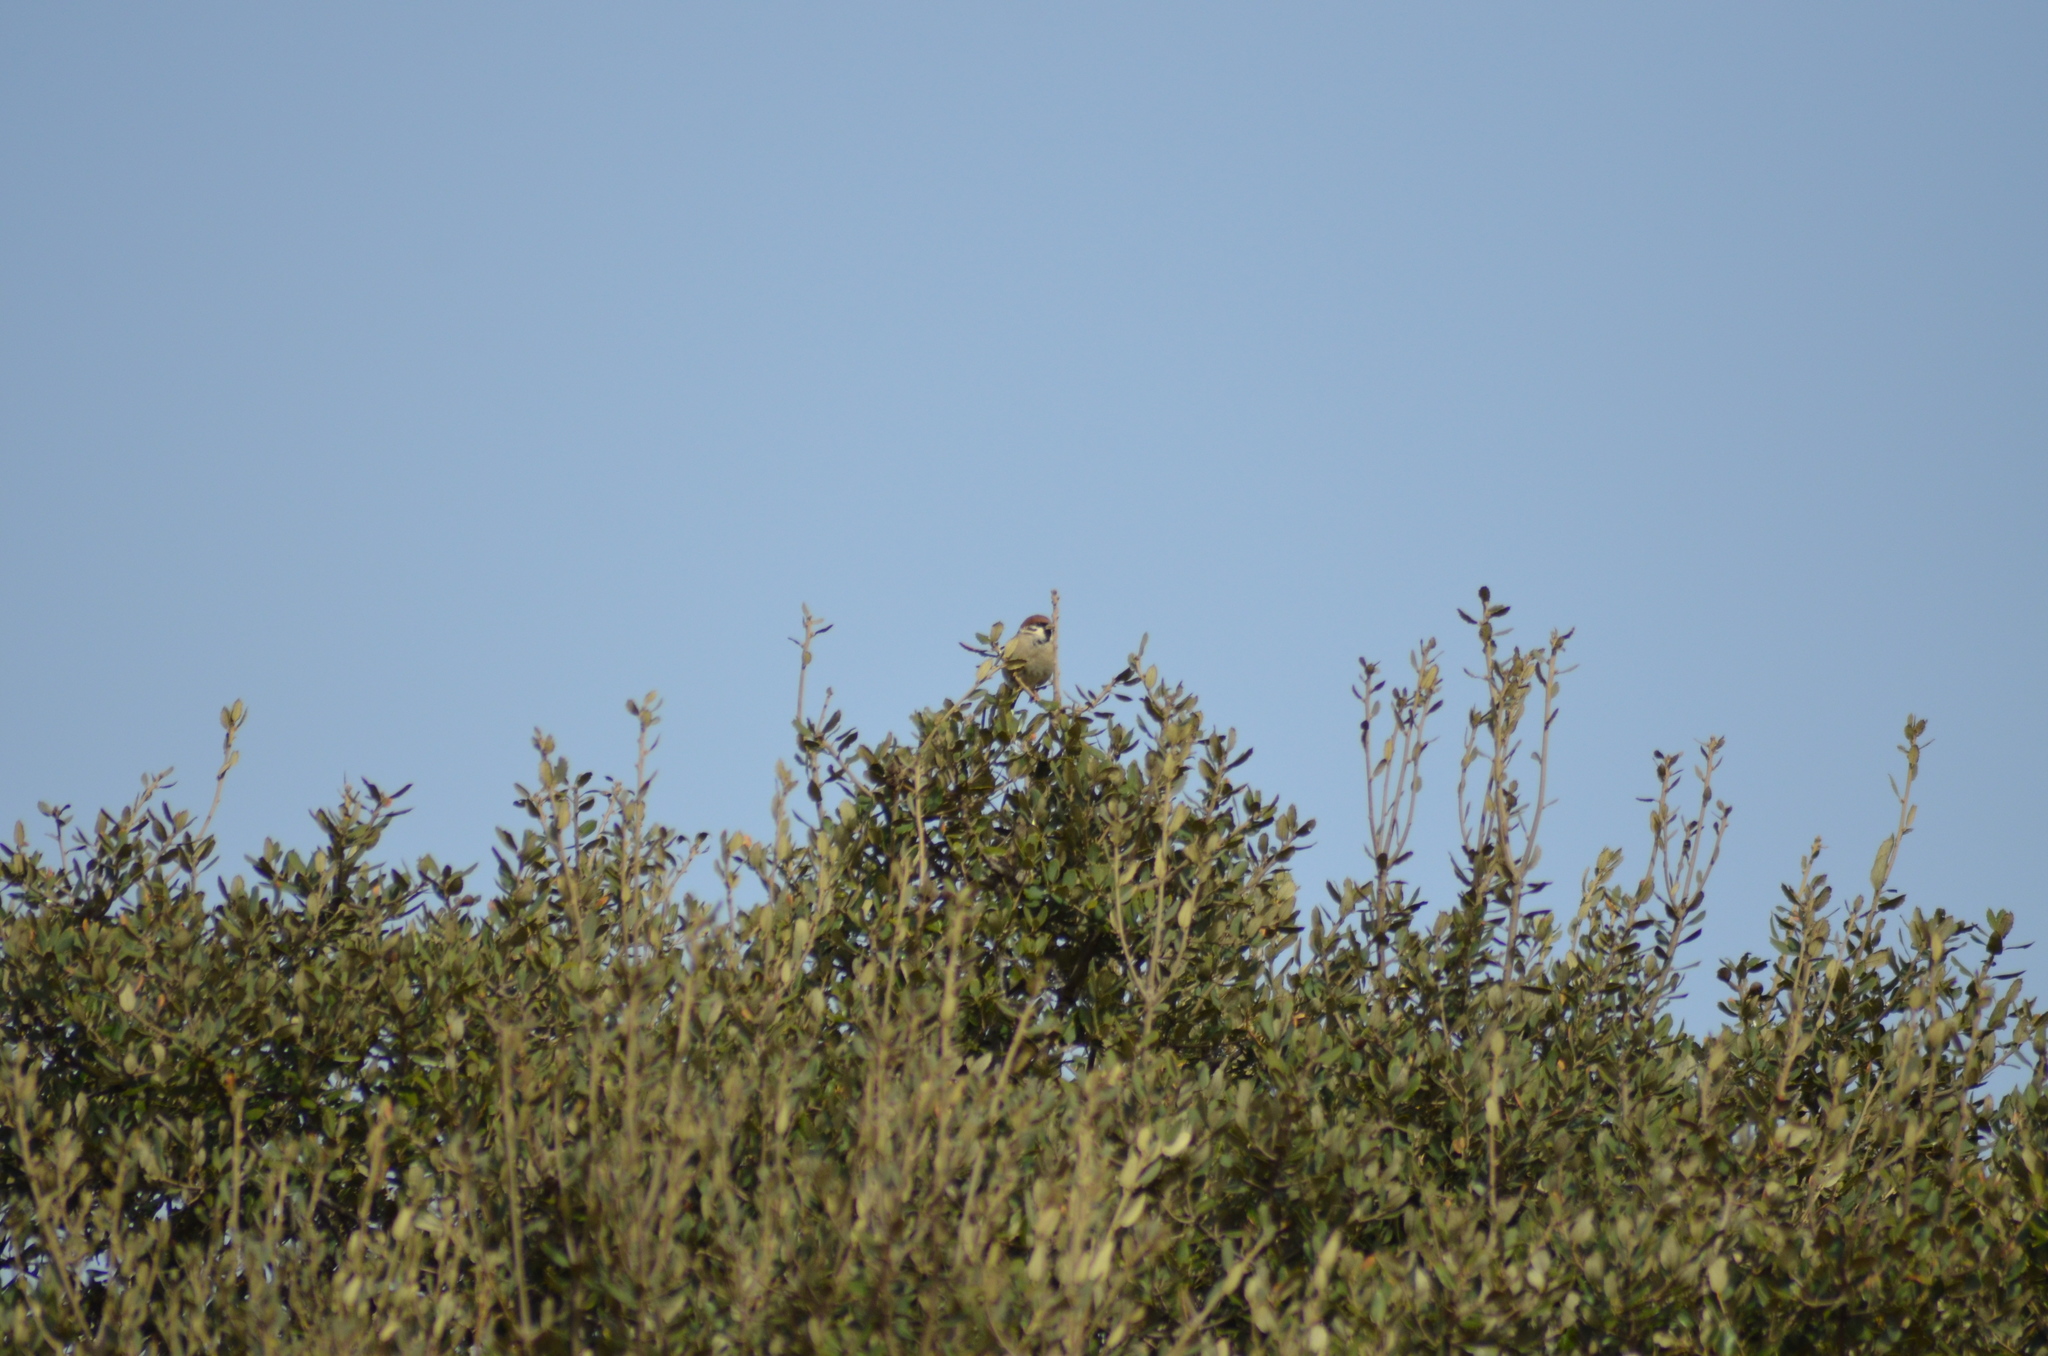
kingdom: Animalia
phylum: Chordata
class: Aves
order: Passeriformes
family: Passeridae
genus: Passer
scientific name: Passer montanus
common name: Eurasian tree sparrow
